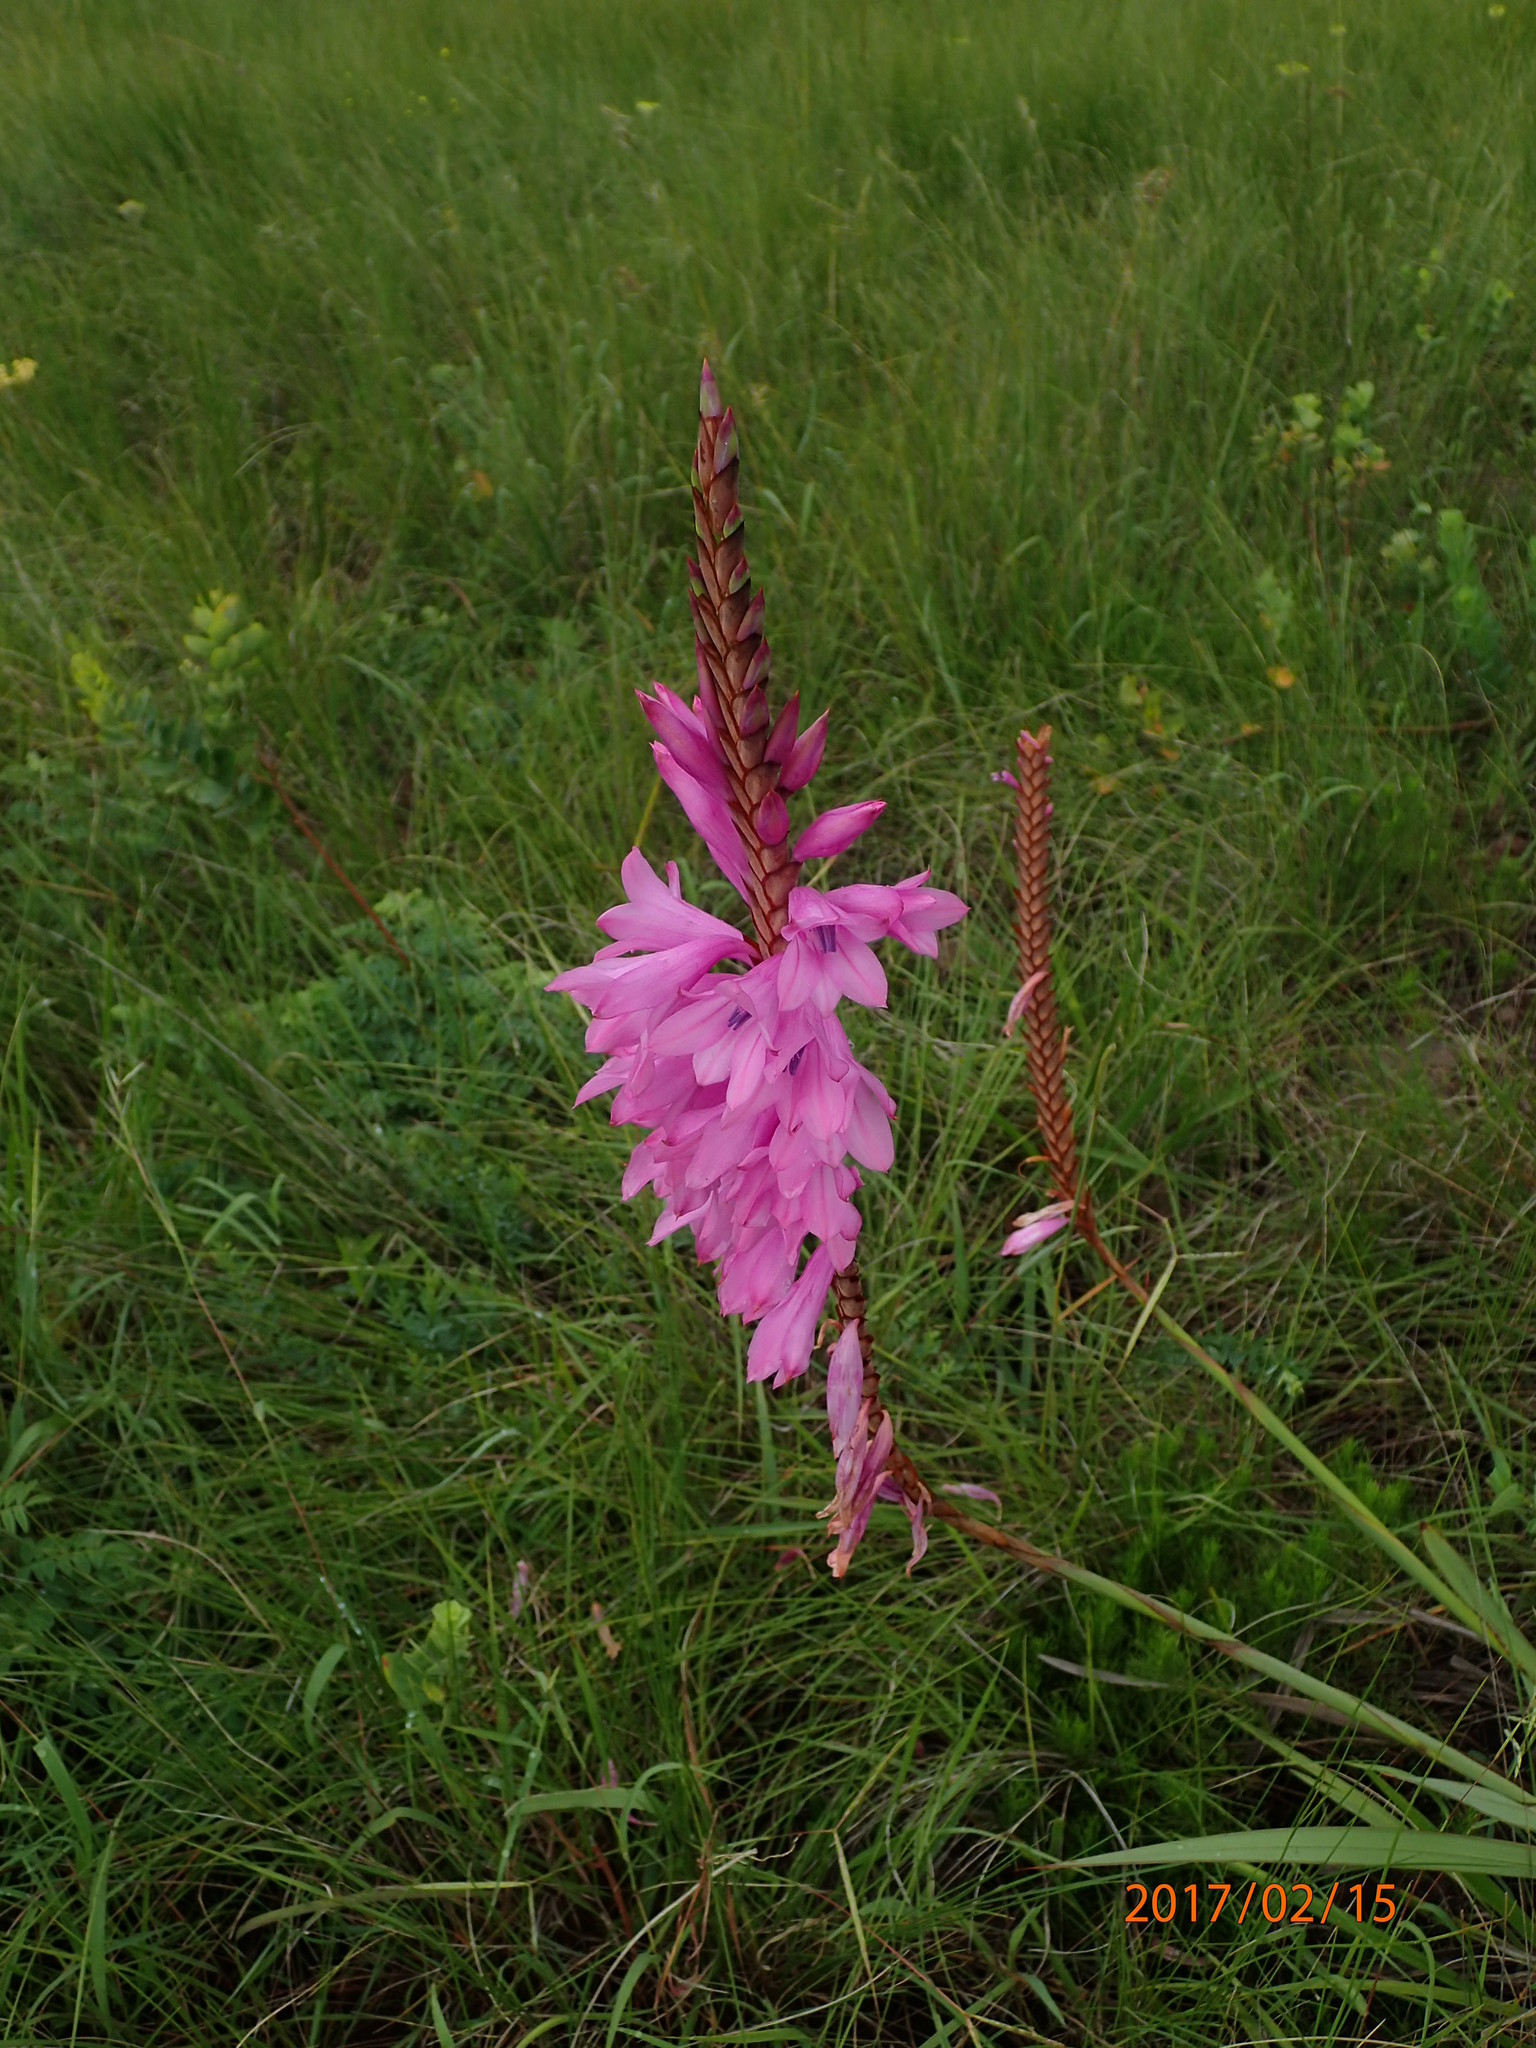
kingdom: Plantae
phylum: Tracheophyta
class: Liliopsida
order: Asparagales
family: Iridaceae
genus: Watsonia
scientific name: Watsonia densiflora
